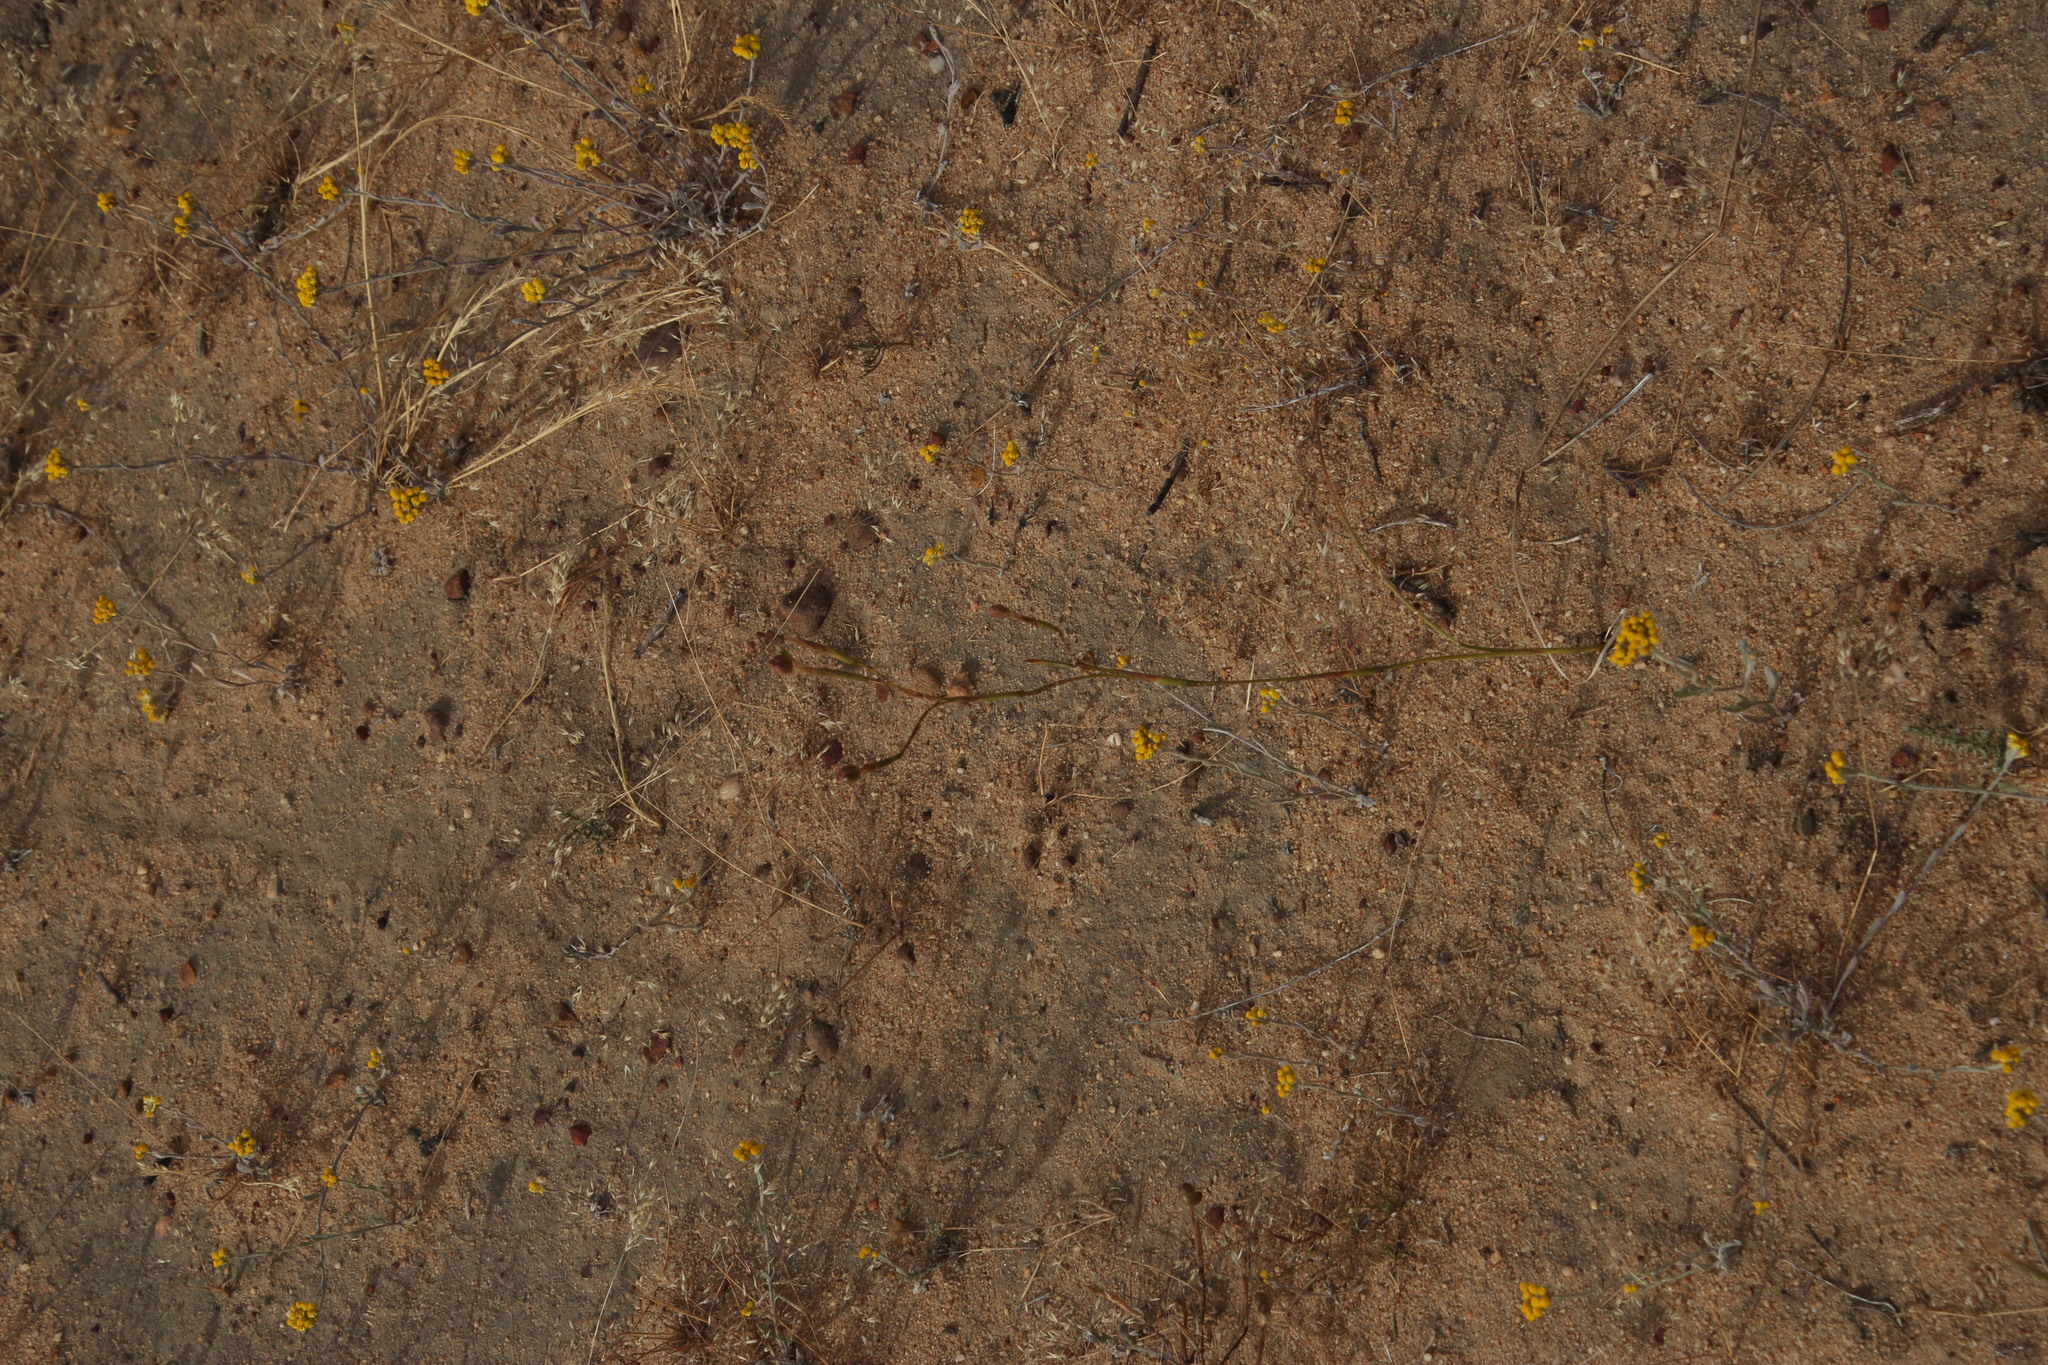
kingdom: Plantae
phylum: Tracheophyta
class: Liliopsida
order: Asparagales
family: Iridaceae
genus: Moraea
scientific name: Moraea inconspicua
